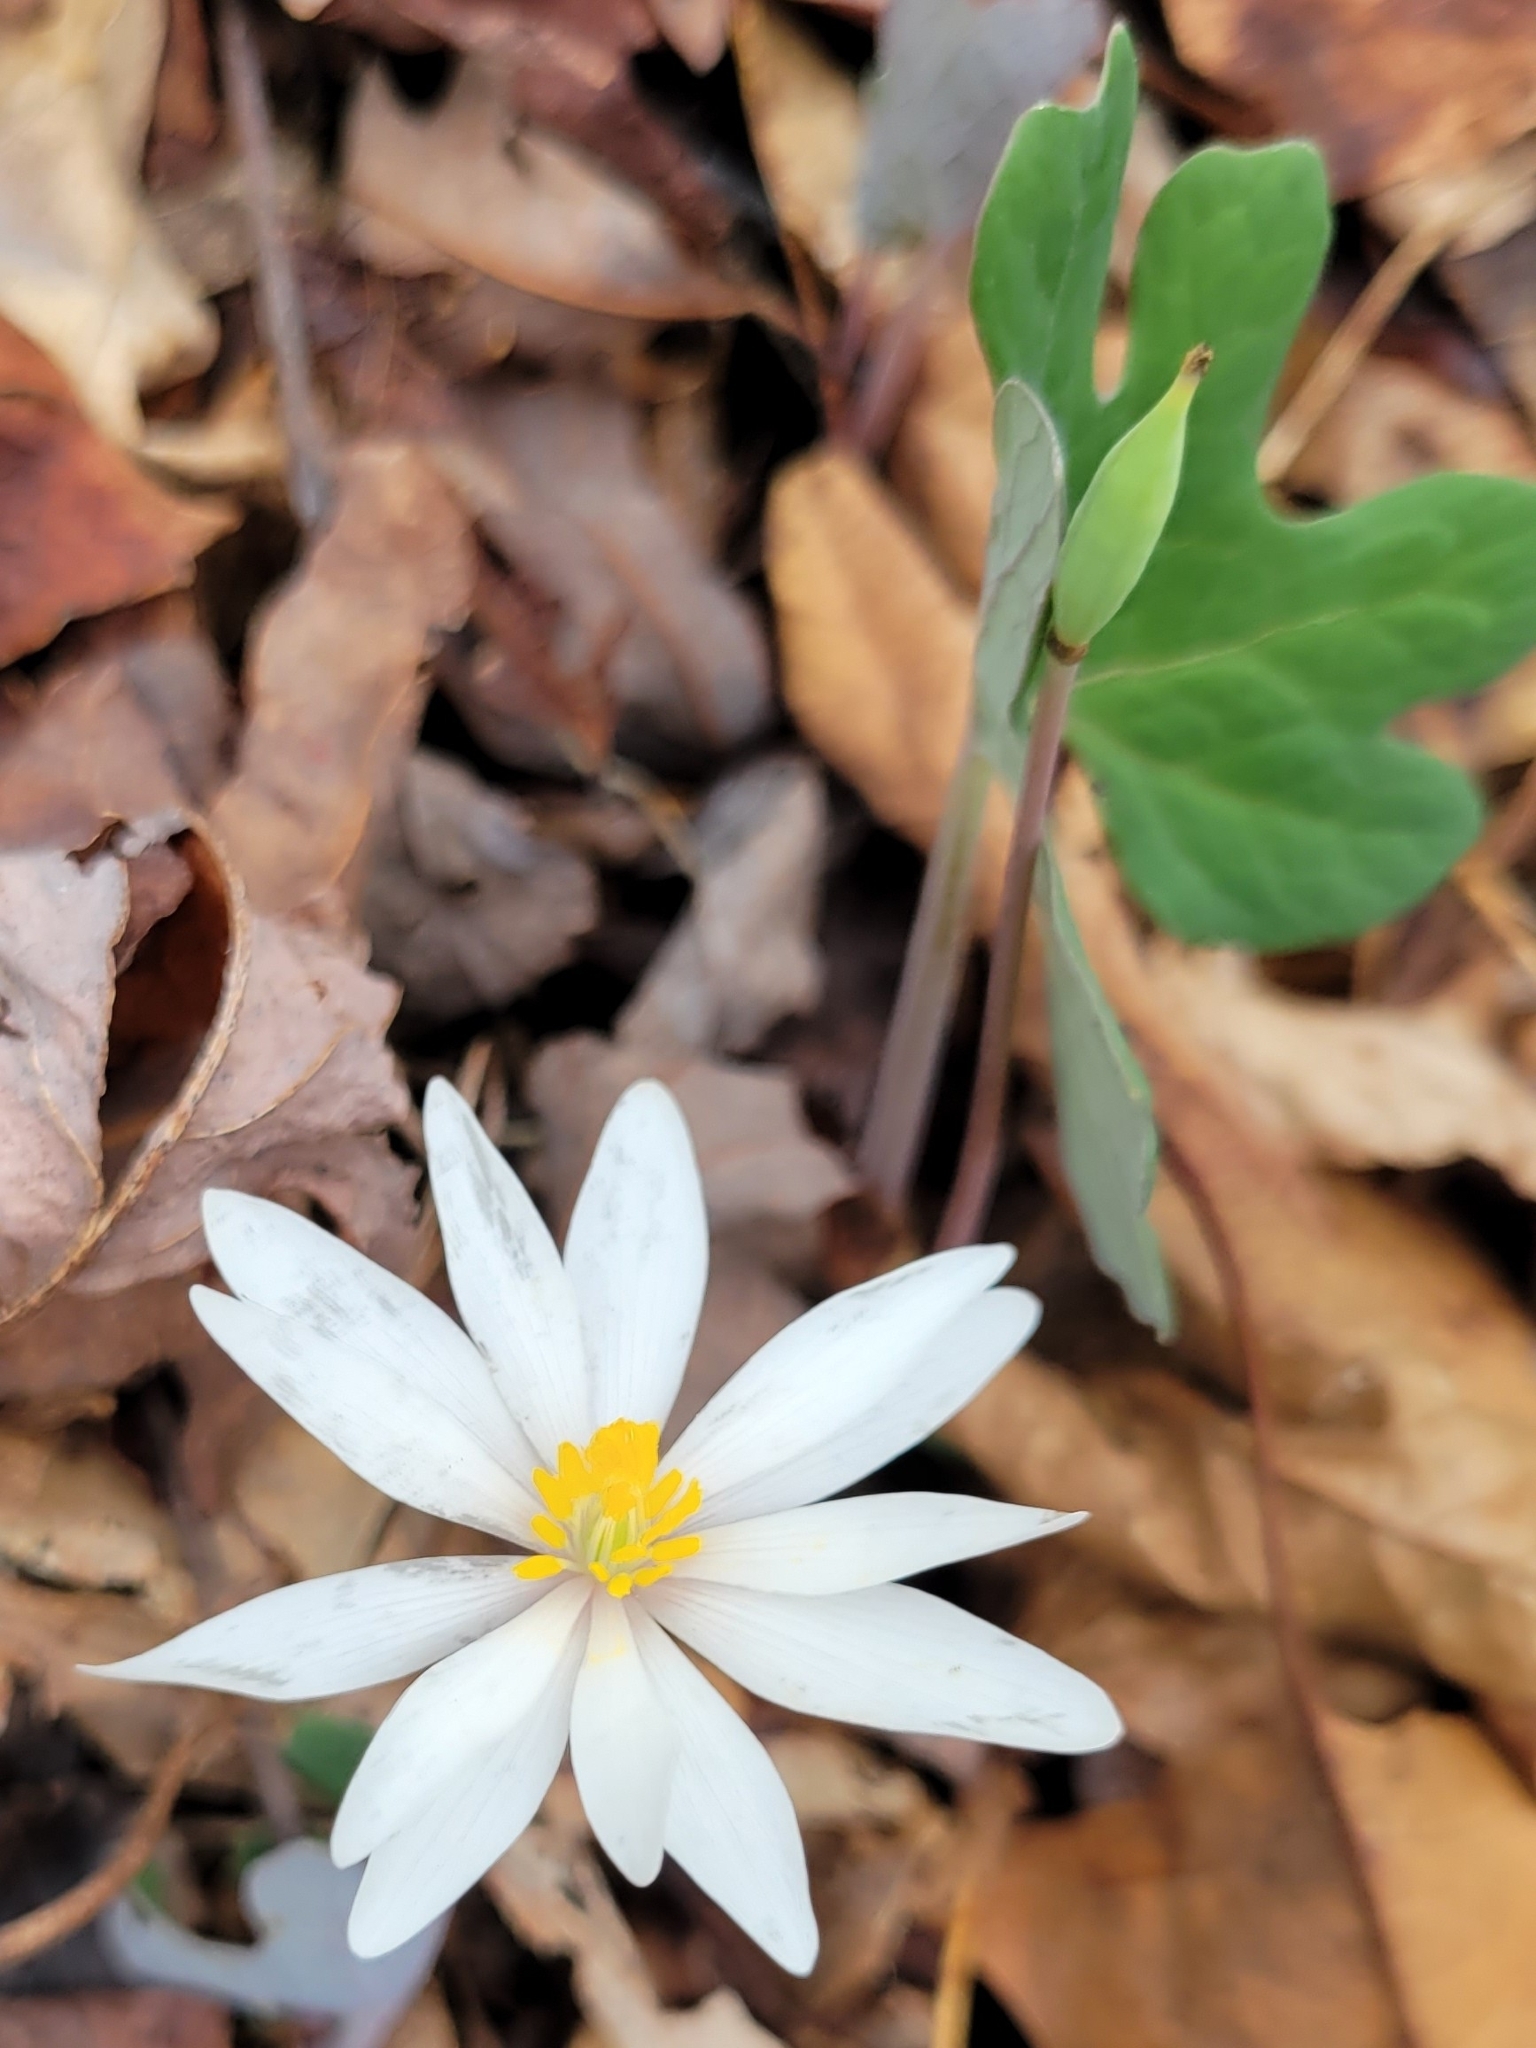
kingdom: Plantae
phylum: Tracheophyta
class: Magnoliopsida
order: Ranunculales
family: Papaveraceae
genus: Sanguinaria
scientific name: Sanguinaria canadensis
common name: Bloodroot
